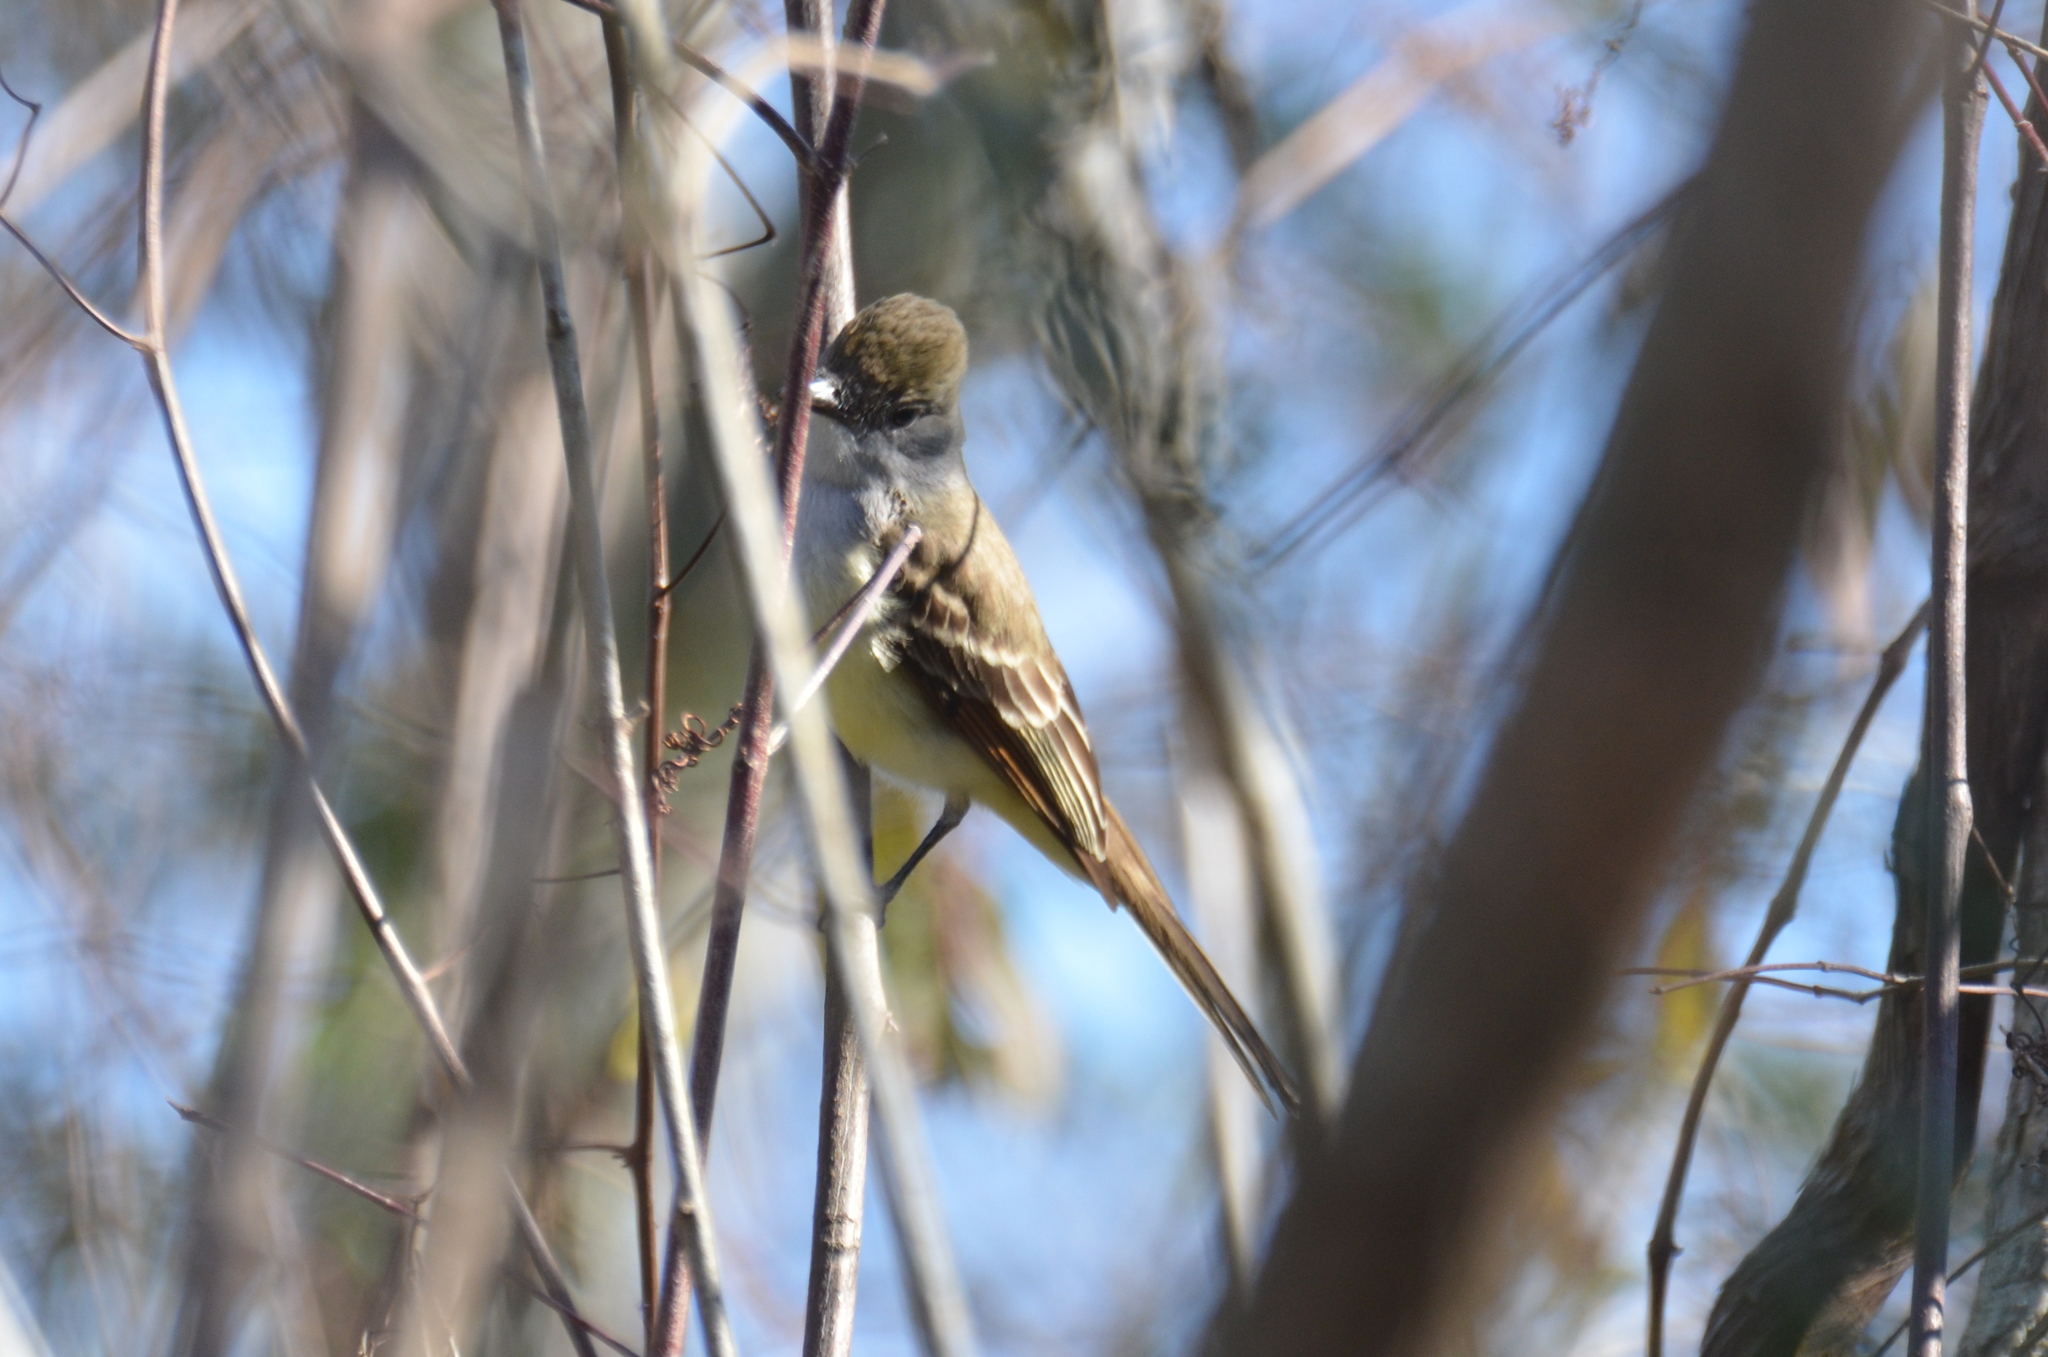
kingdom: Animalia
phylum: Chordata
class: Aves
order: Passeriformes
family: Tyrannidae
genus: Myiarchus
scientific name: Myiarchus cinerascens
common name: Ash-throated flycatcher
